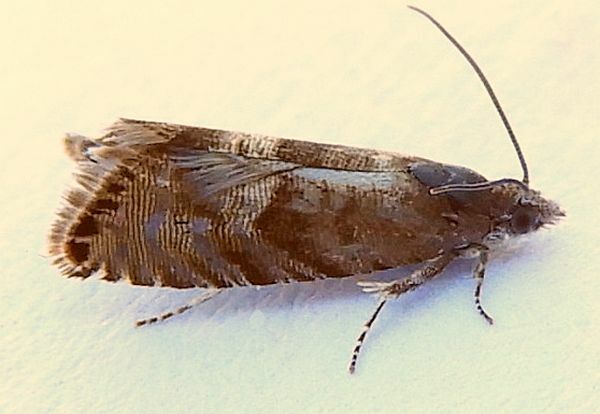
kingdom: Animalia
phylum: Arthropoda
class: Insecta
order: Lepidoptera
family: Tortricidae
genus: Sereda
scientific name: Sereda tautana
